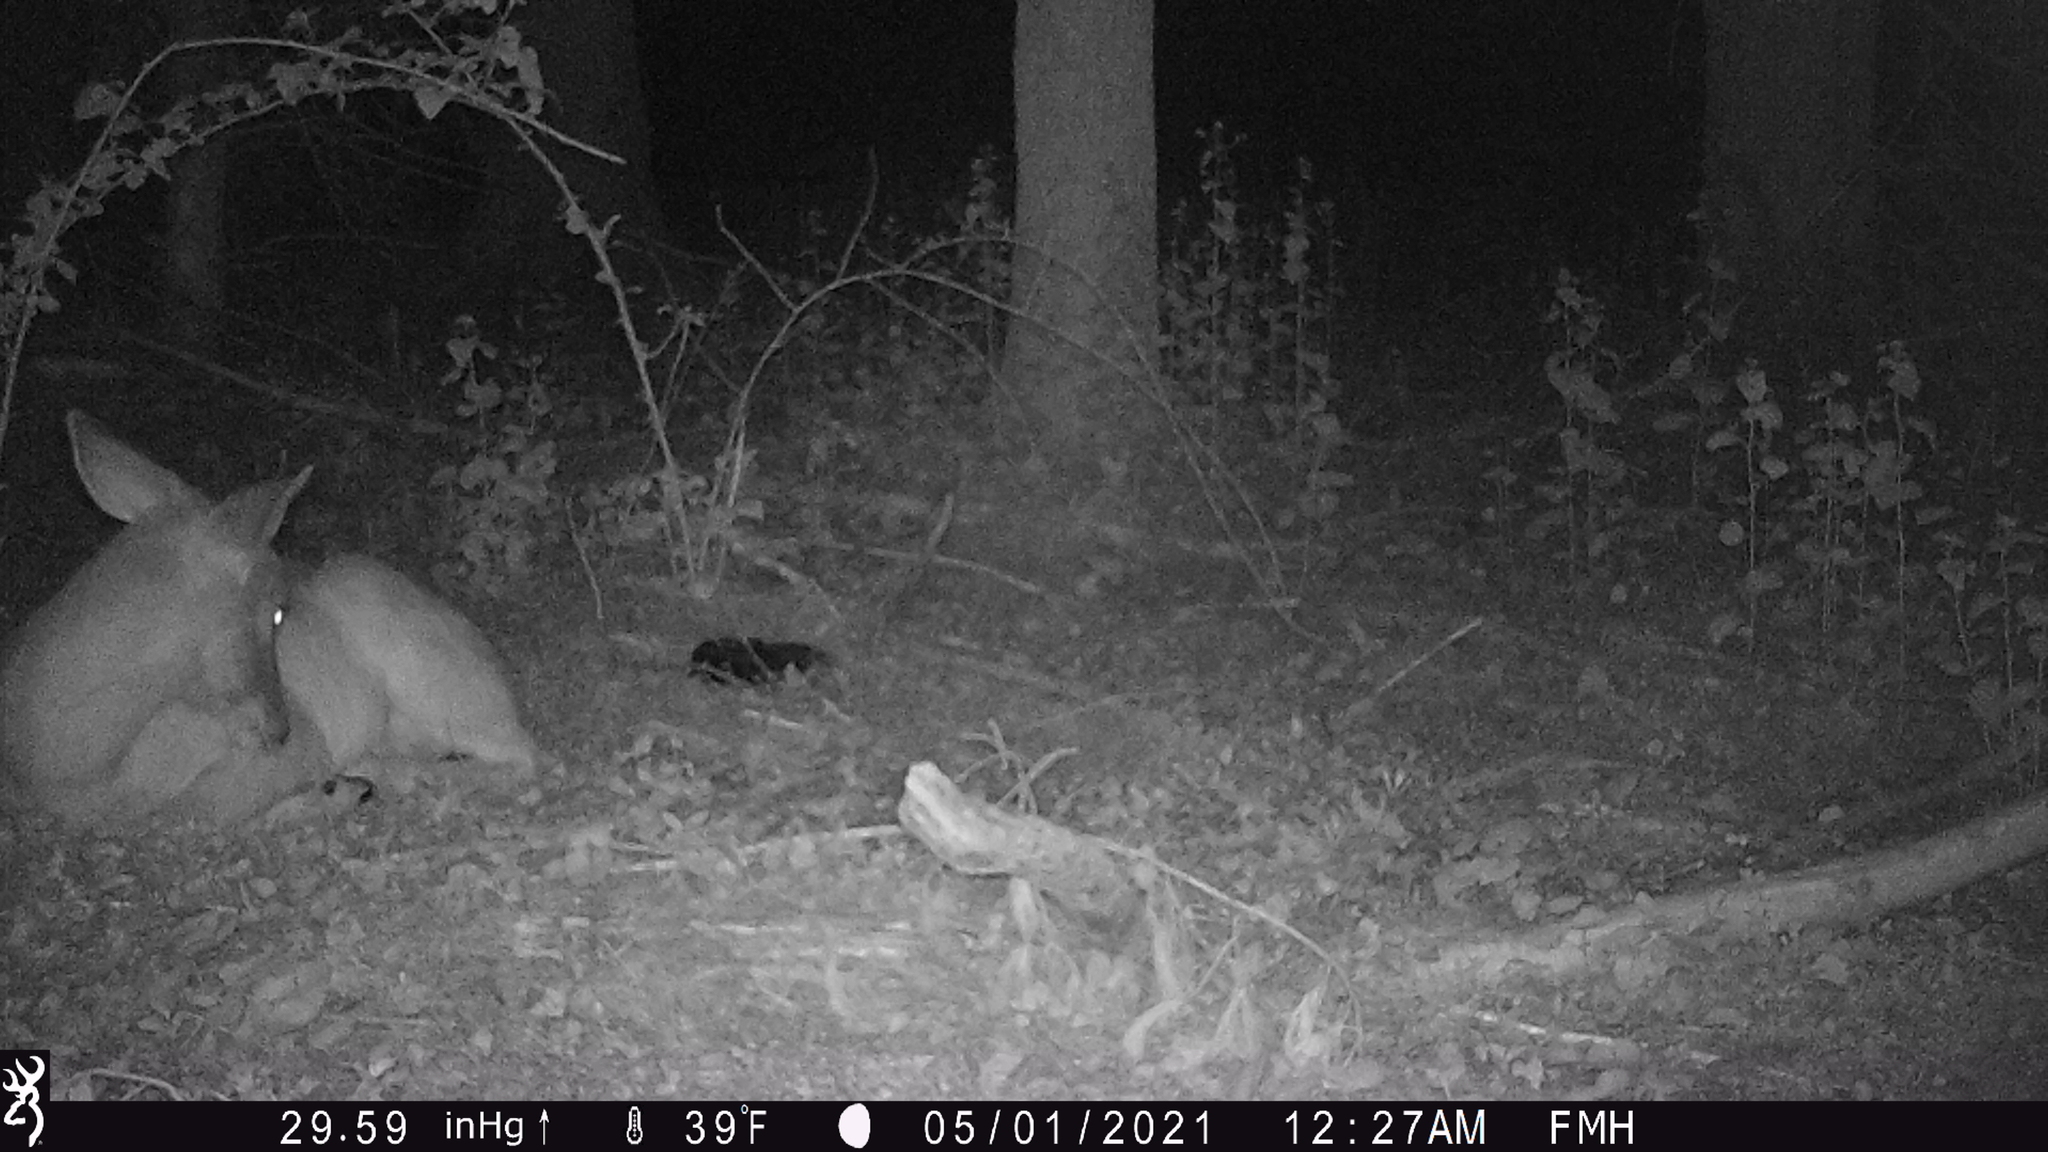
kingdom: Animalia
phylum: Chordata
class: Mammalia
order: Artiodactyla
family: Cervidae
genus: Odocoileus
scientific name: Odocoileus virginianus
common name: White-tailed deer
